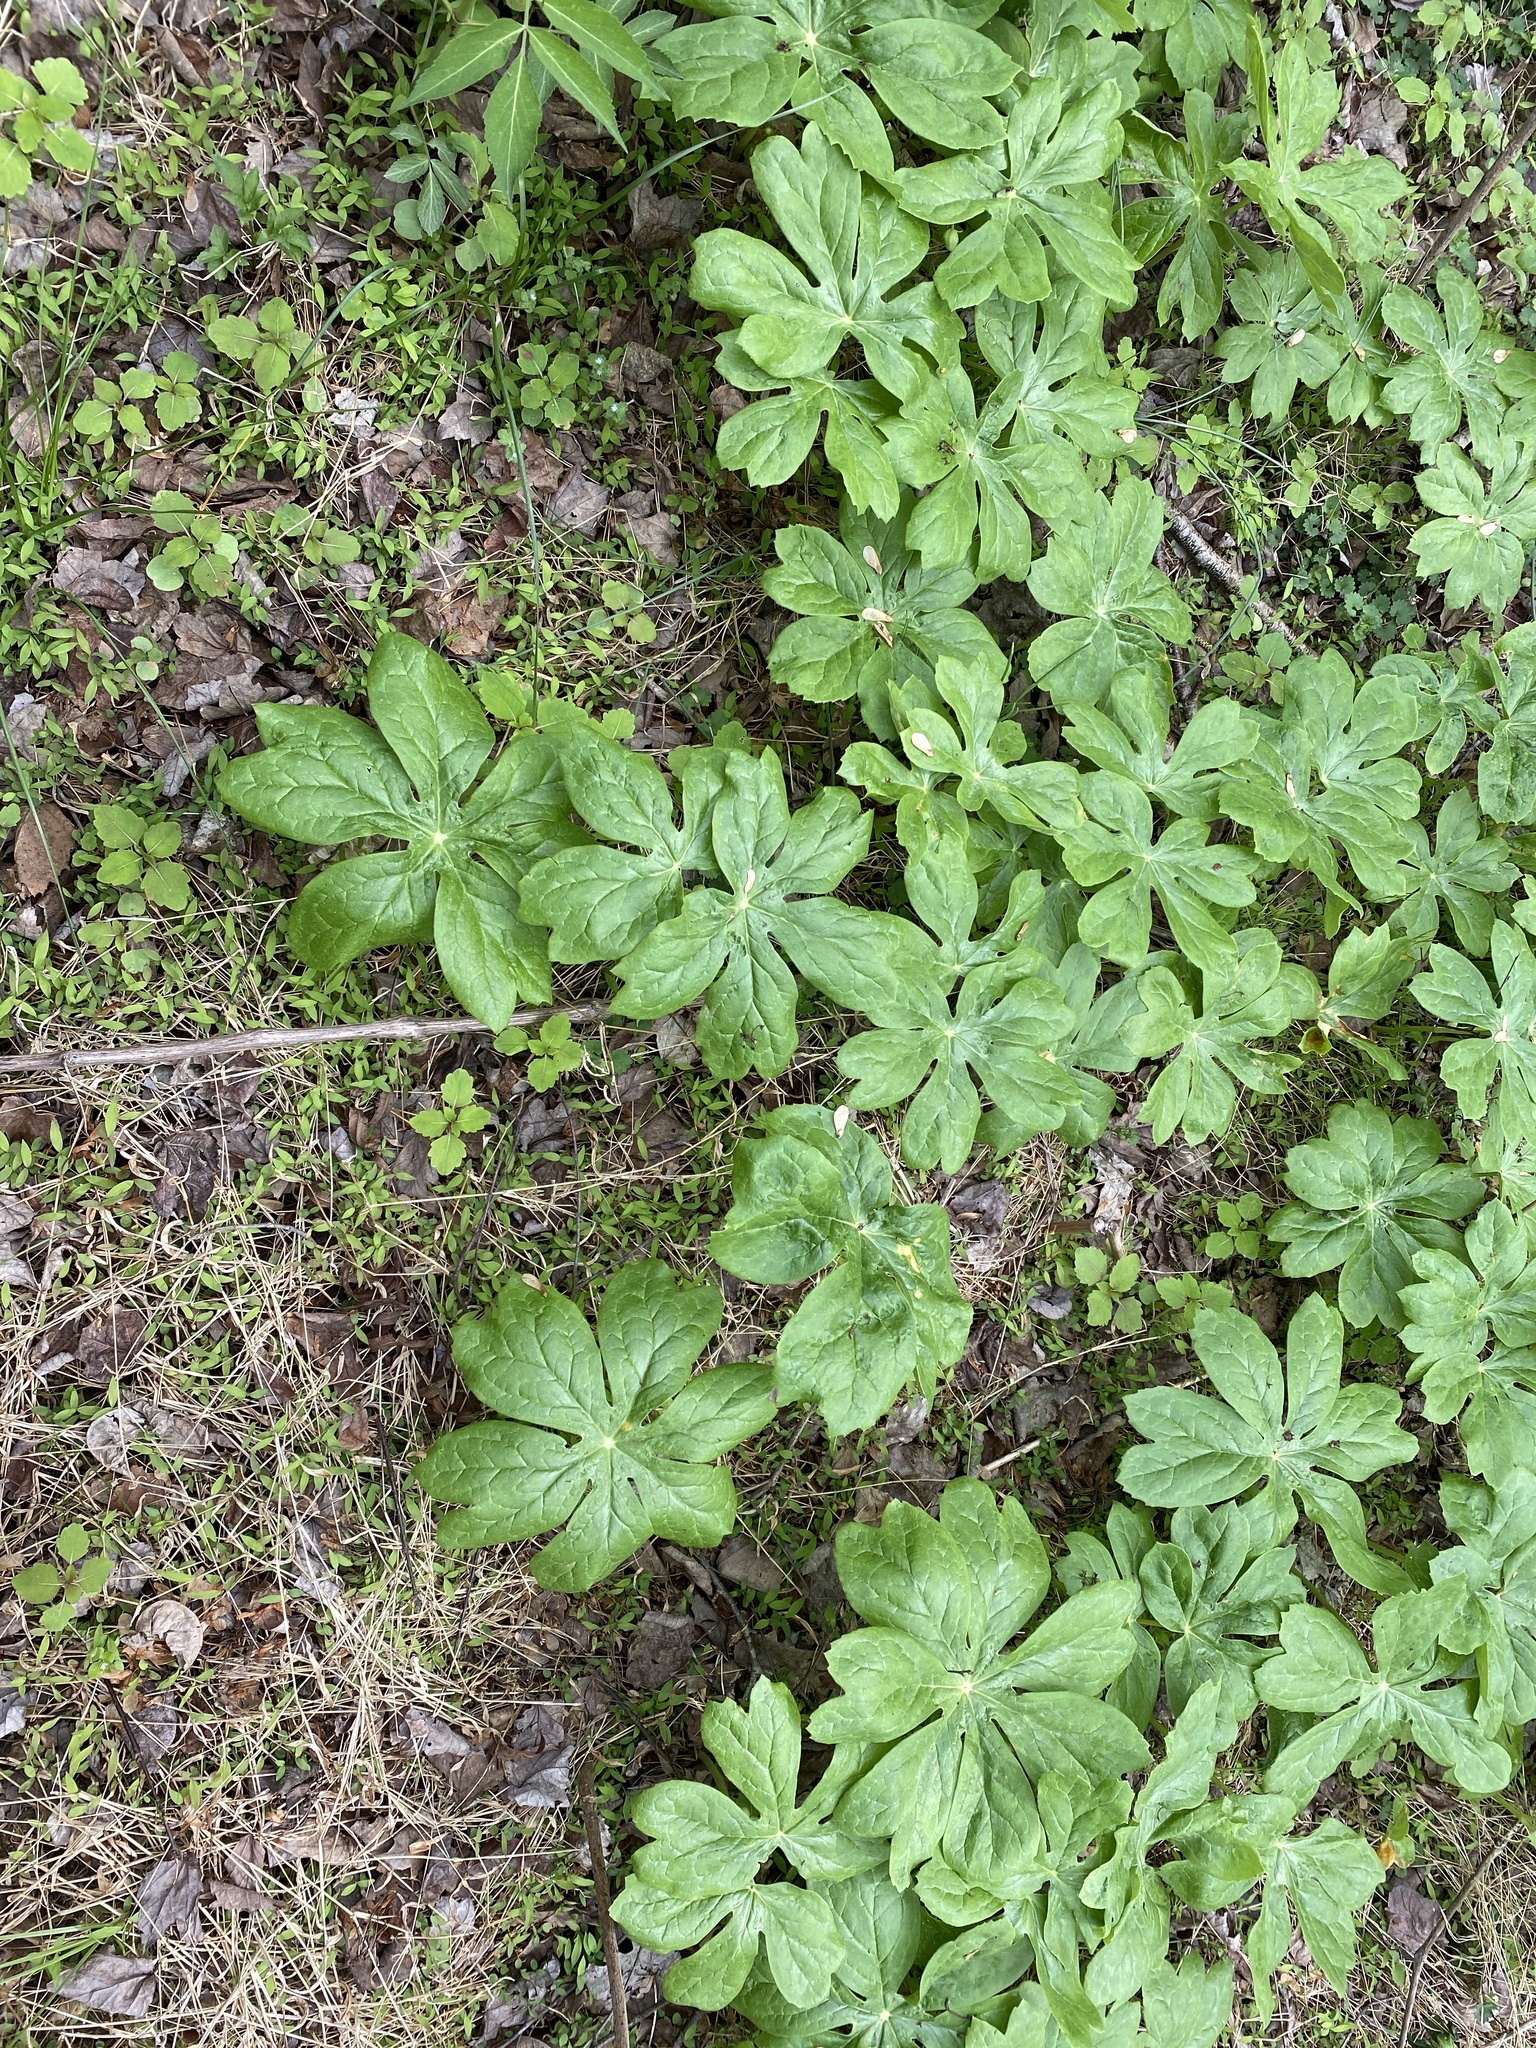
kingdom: Plantae
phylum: Tracheophyta
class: Magnoliopsida
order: Ranunculales
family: Berberidaceae
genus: Podophyllum
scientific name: Podophyllum peltatum
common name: Wild mandrake
